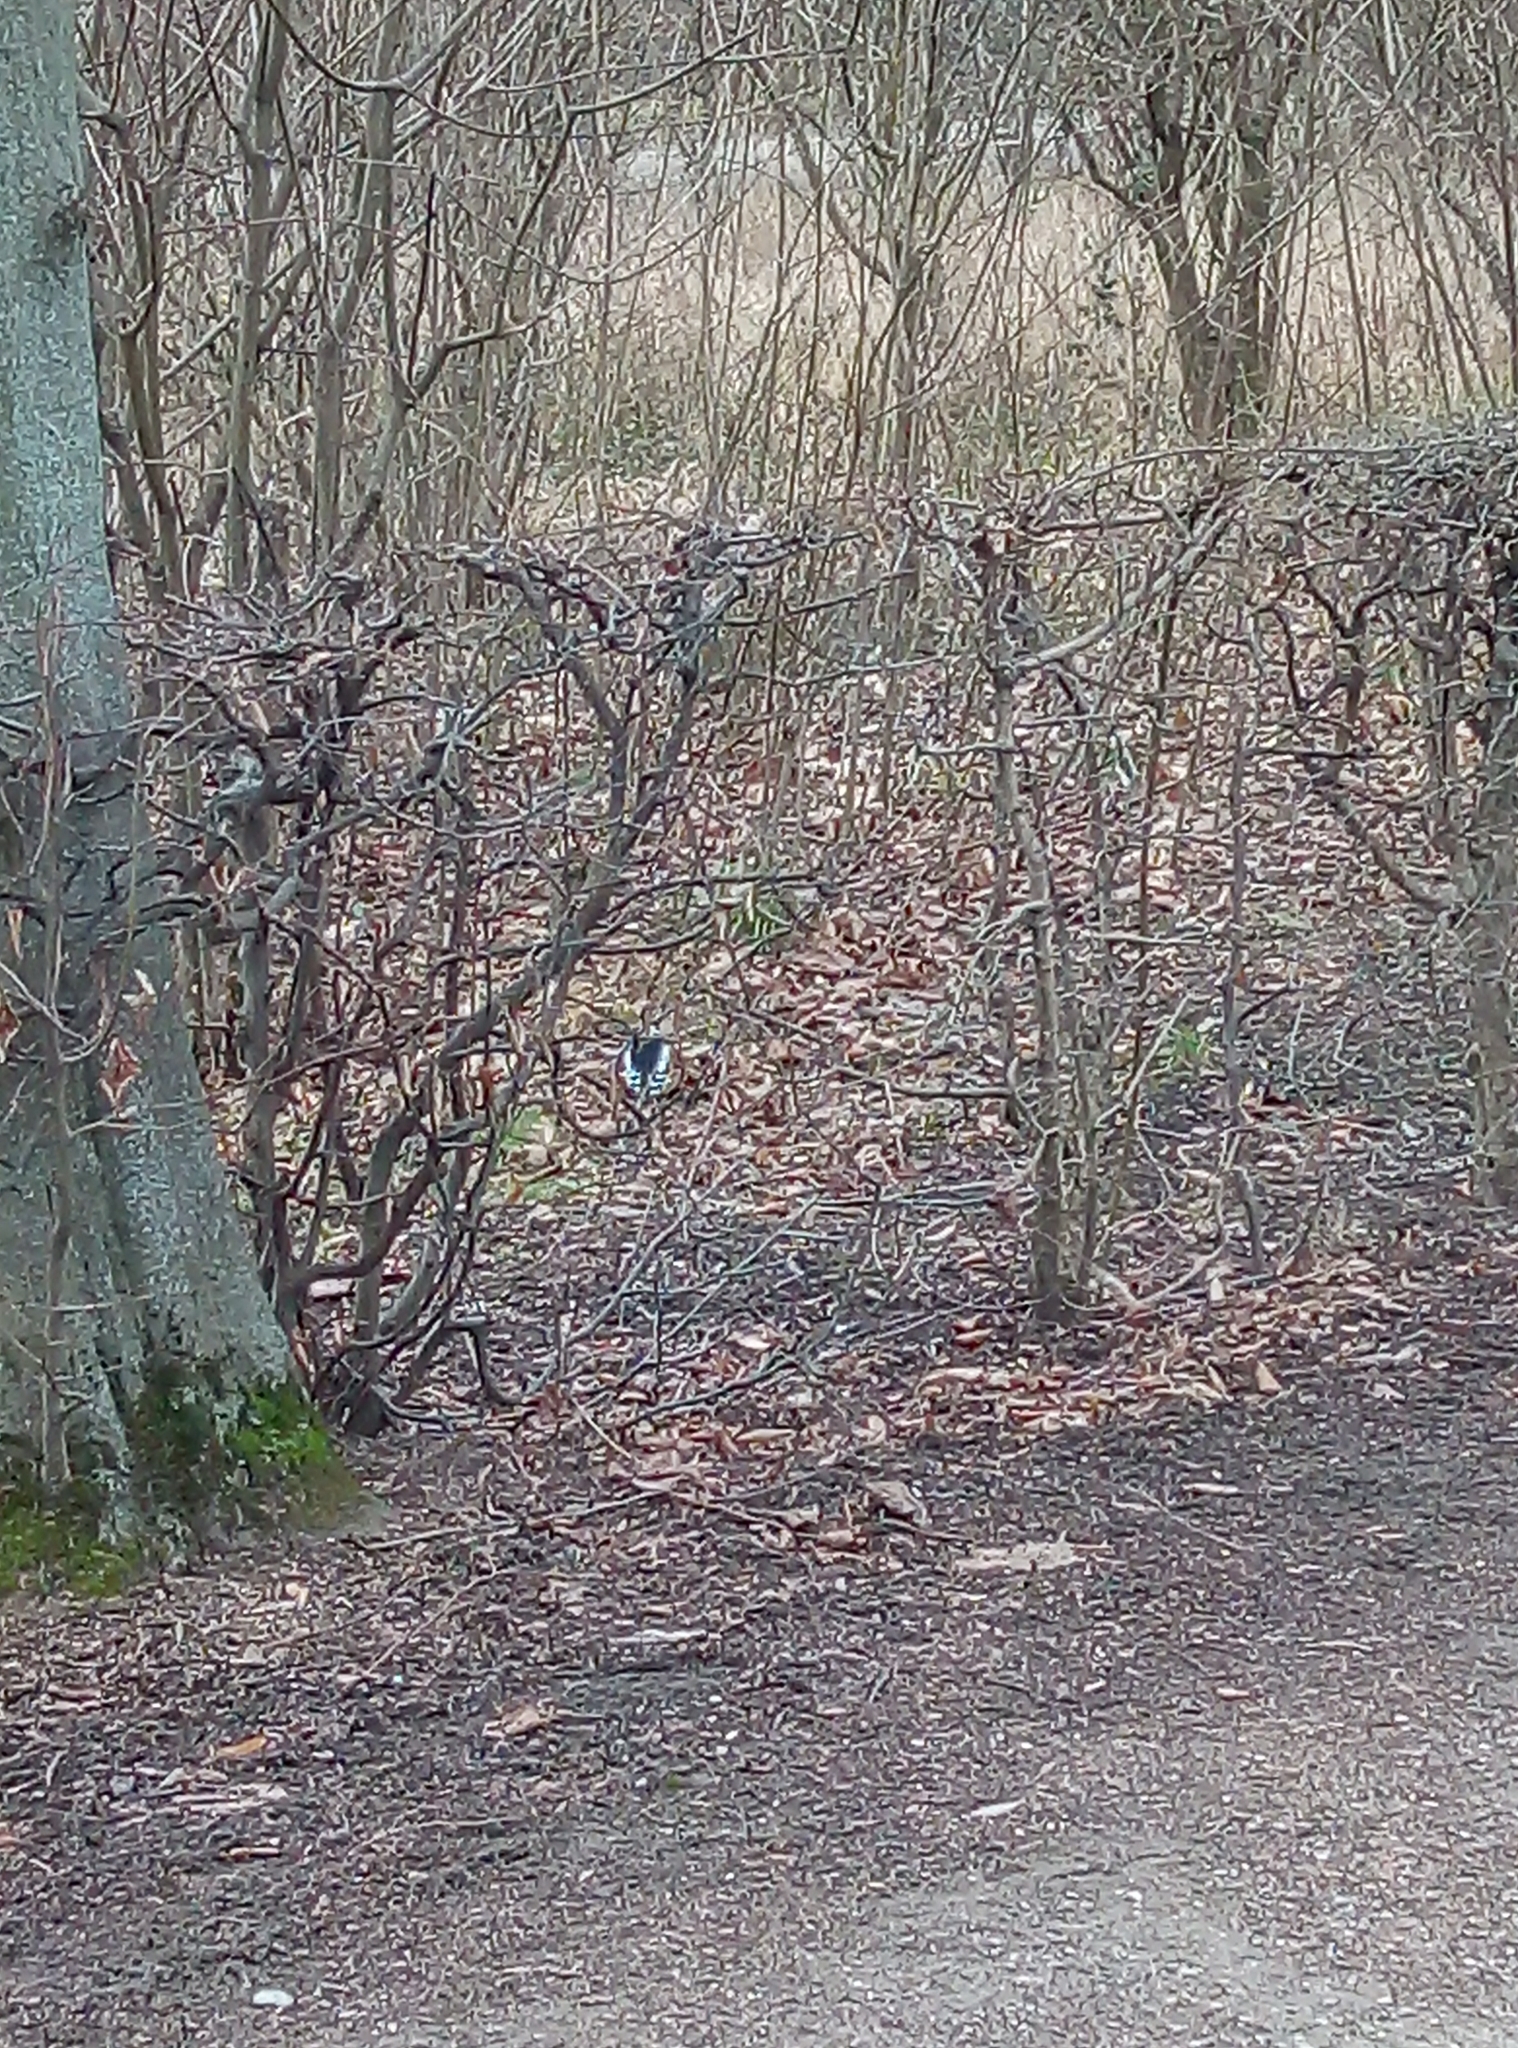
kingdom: Animalia
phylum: Chordata
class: Aves
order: Piciformes
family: Picidae
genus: Dendrocopos
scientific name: Dendrocopos major
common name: Great spotted woodpecker
